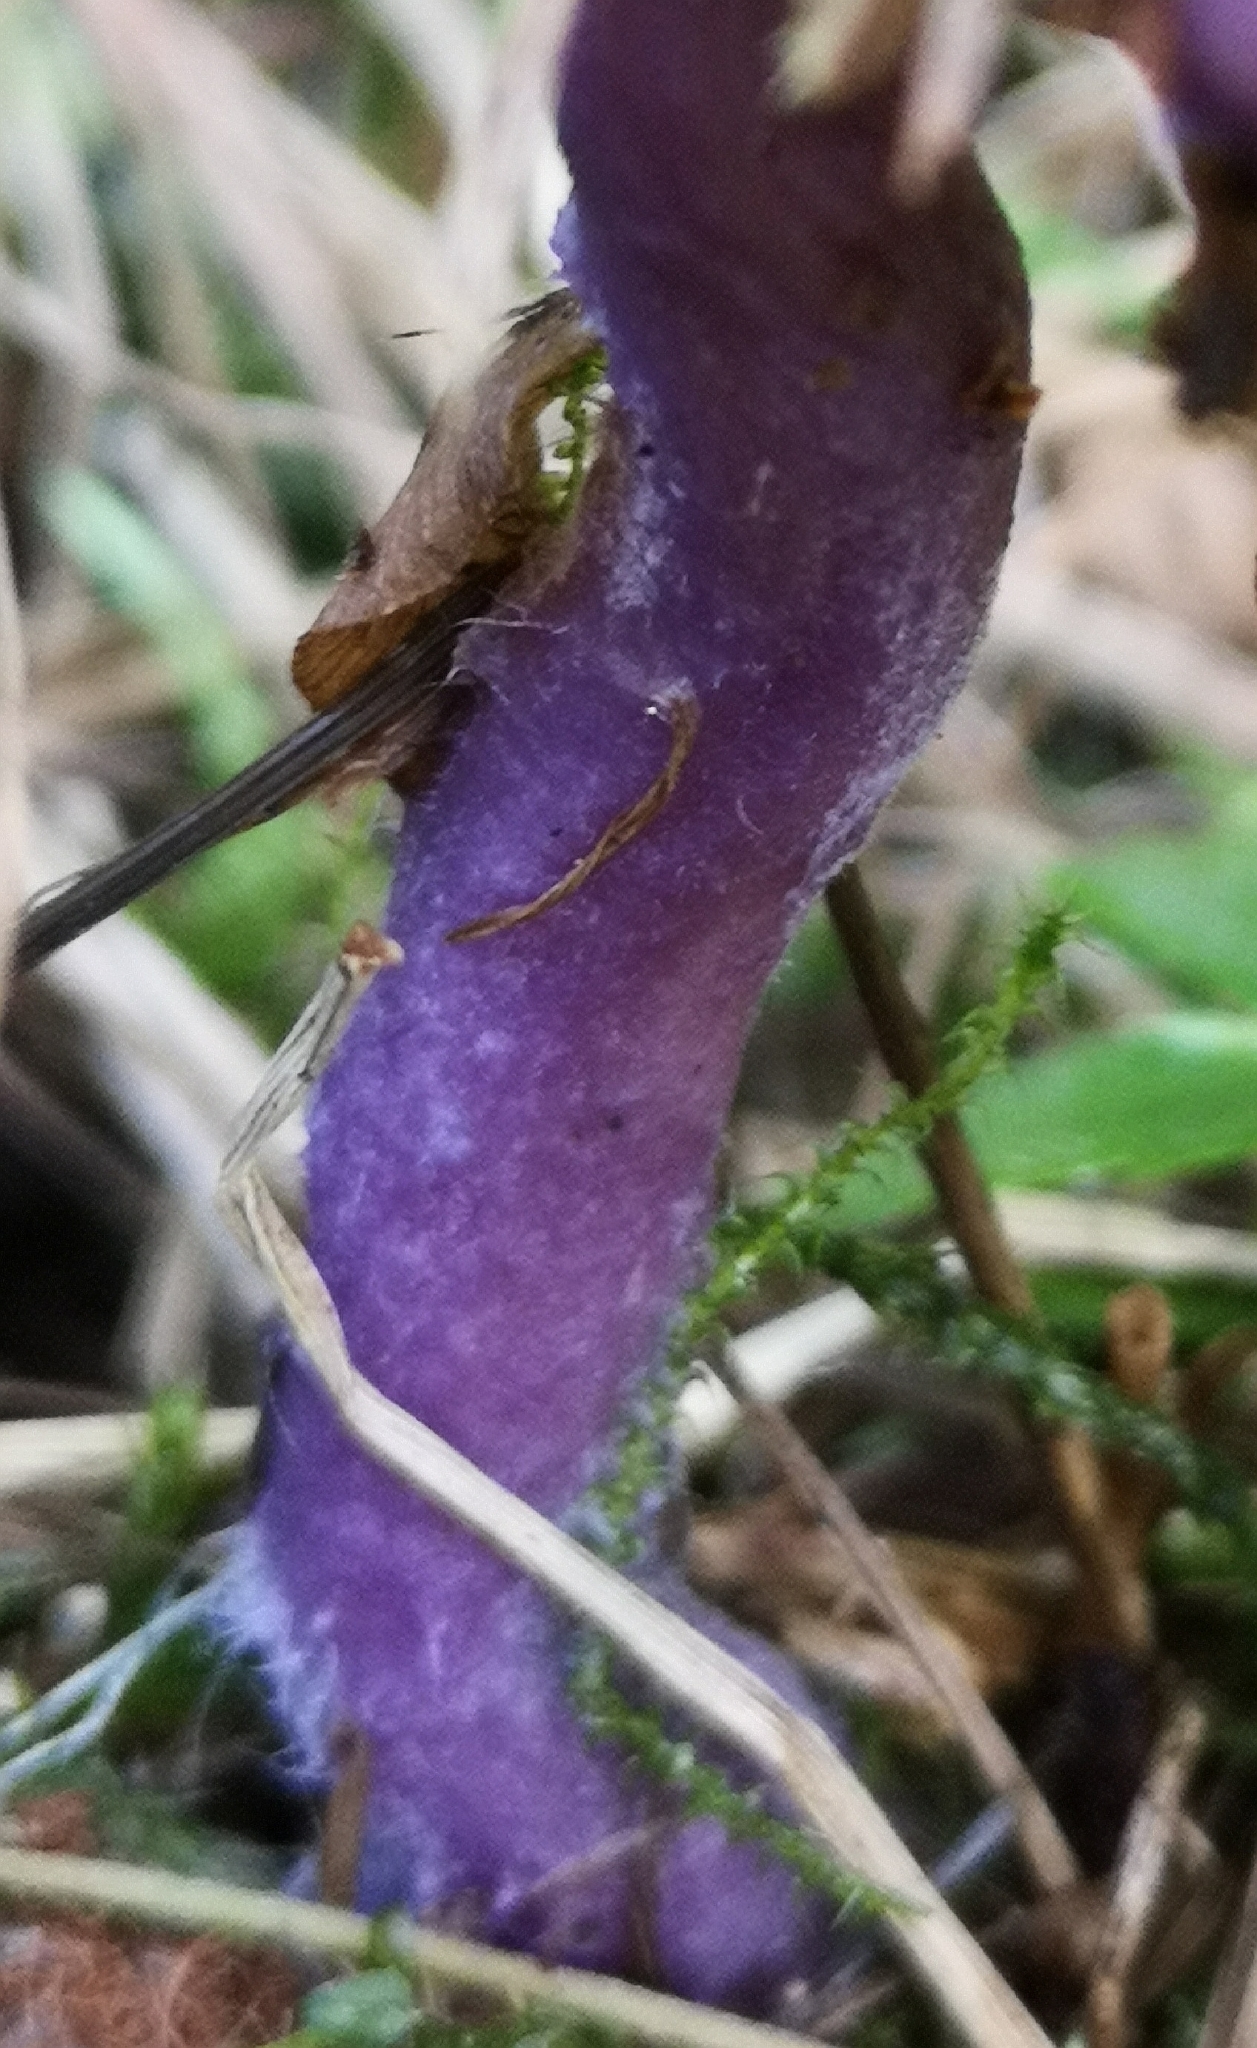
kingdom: Fungi
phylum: Basidiomycota
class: Agaricomycetes
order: Agaricales
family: Hydnangiaceae
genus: Laccaria
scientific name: Laccaria amethystina
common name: Amethyst deceiver
